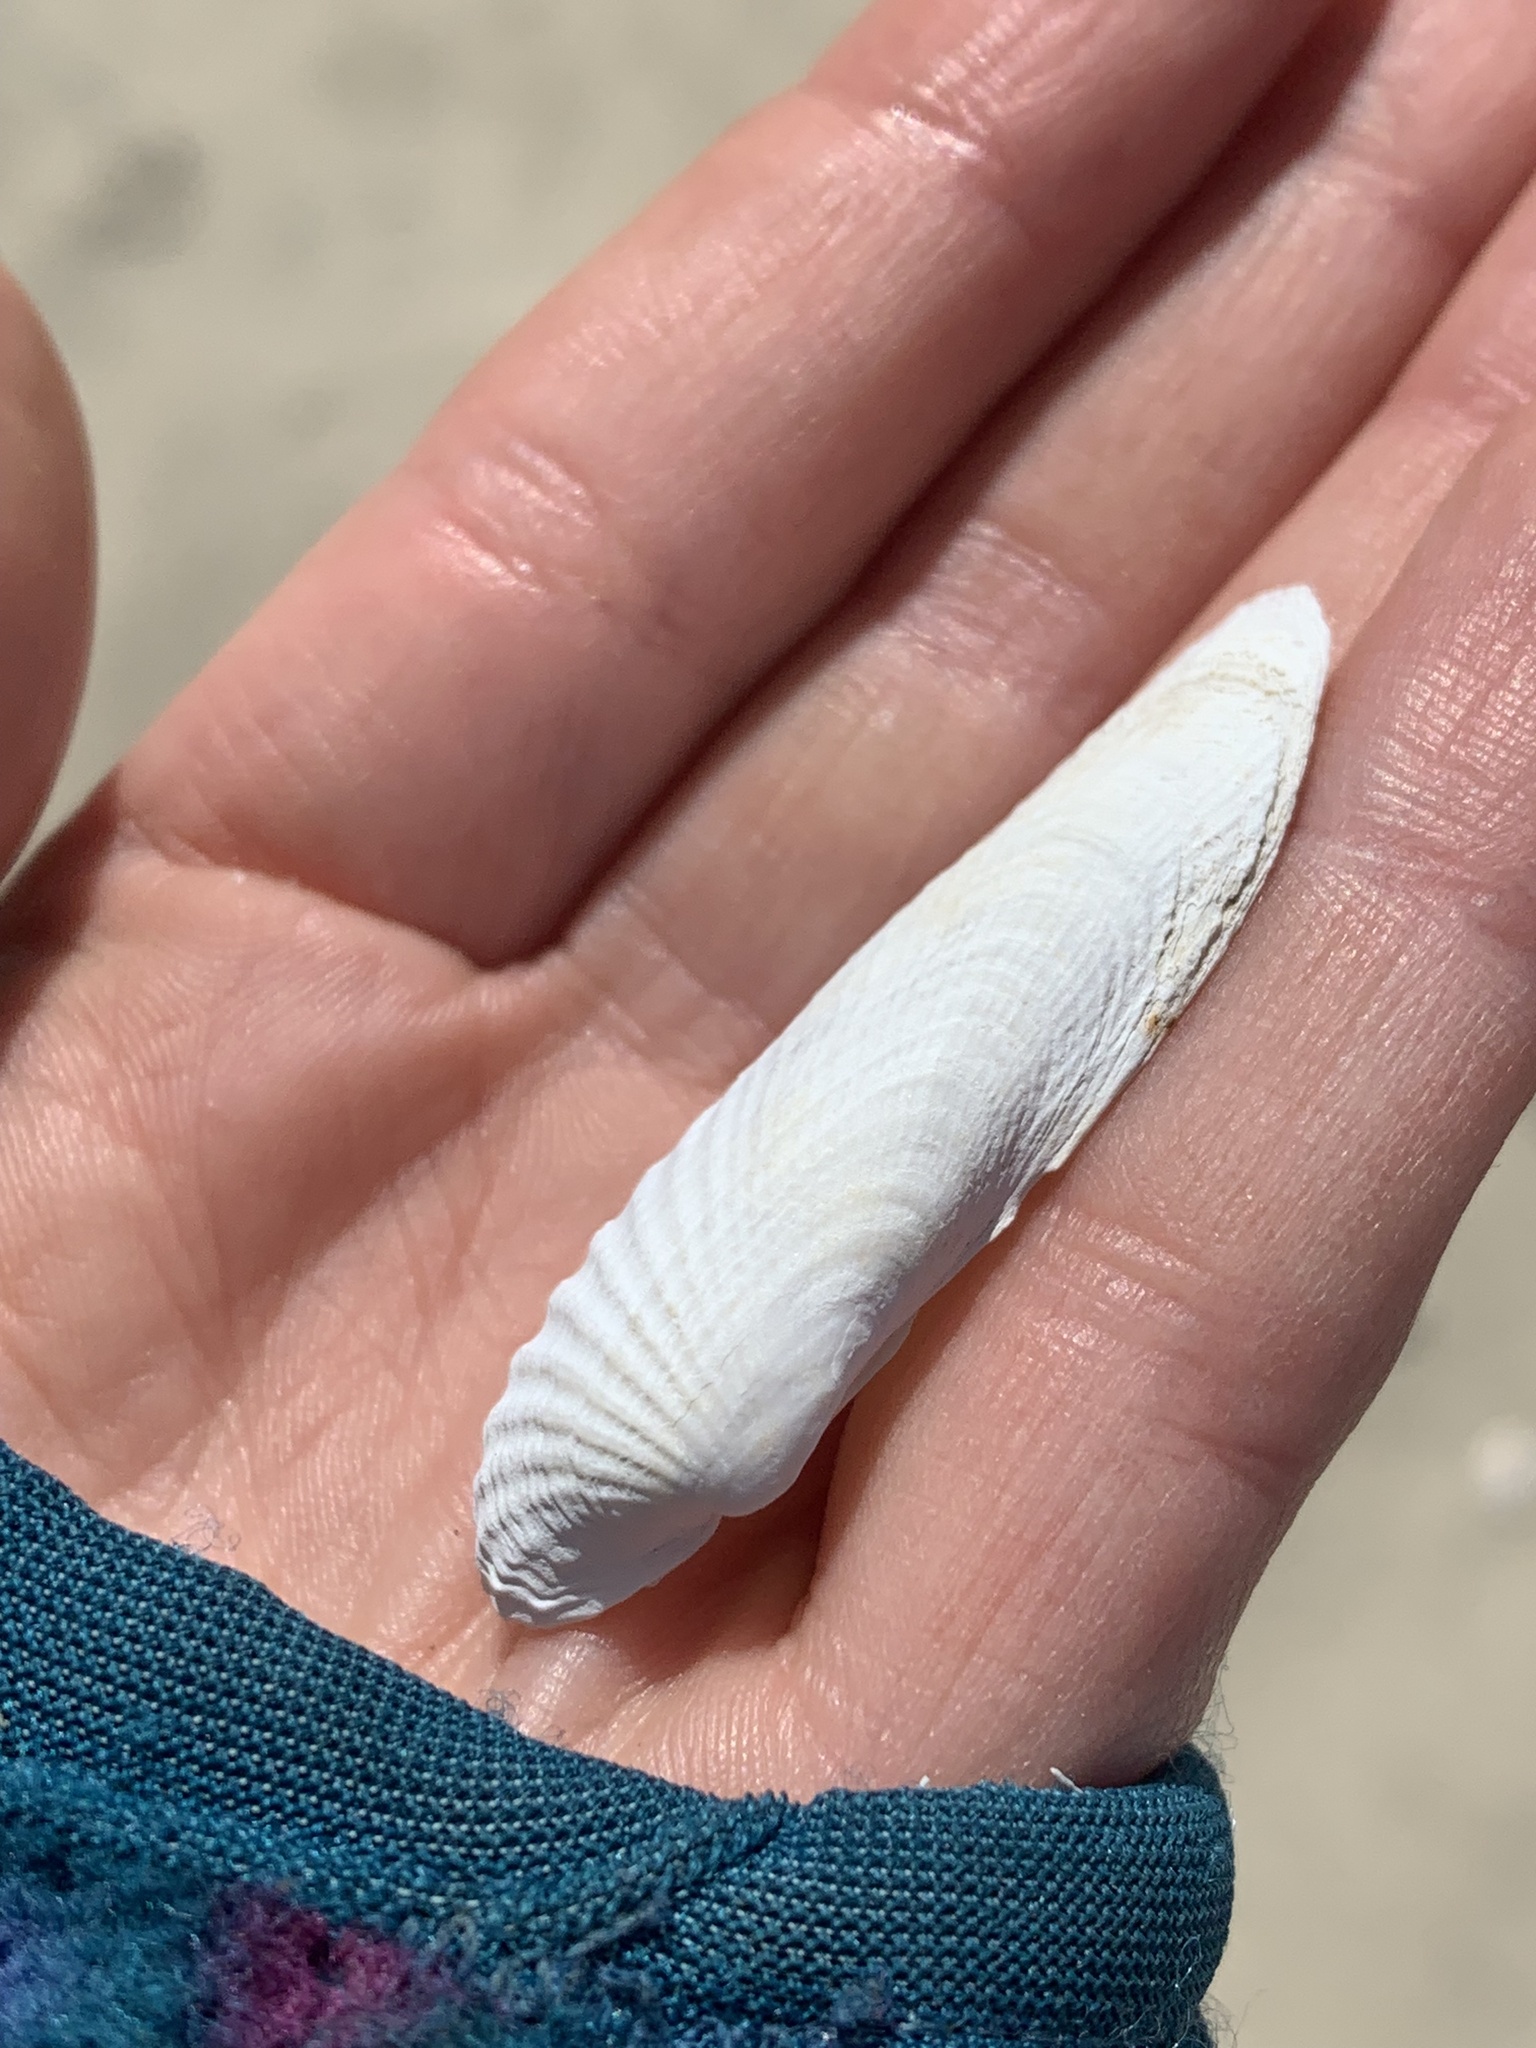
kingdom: Animalia
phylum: Mollusca
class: Bivalvia
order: Venerida
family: Veneridae
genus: Petricolaria
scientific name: Petricolaria pholadiformis
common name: American piddock
